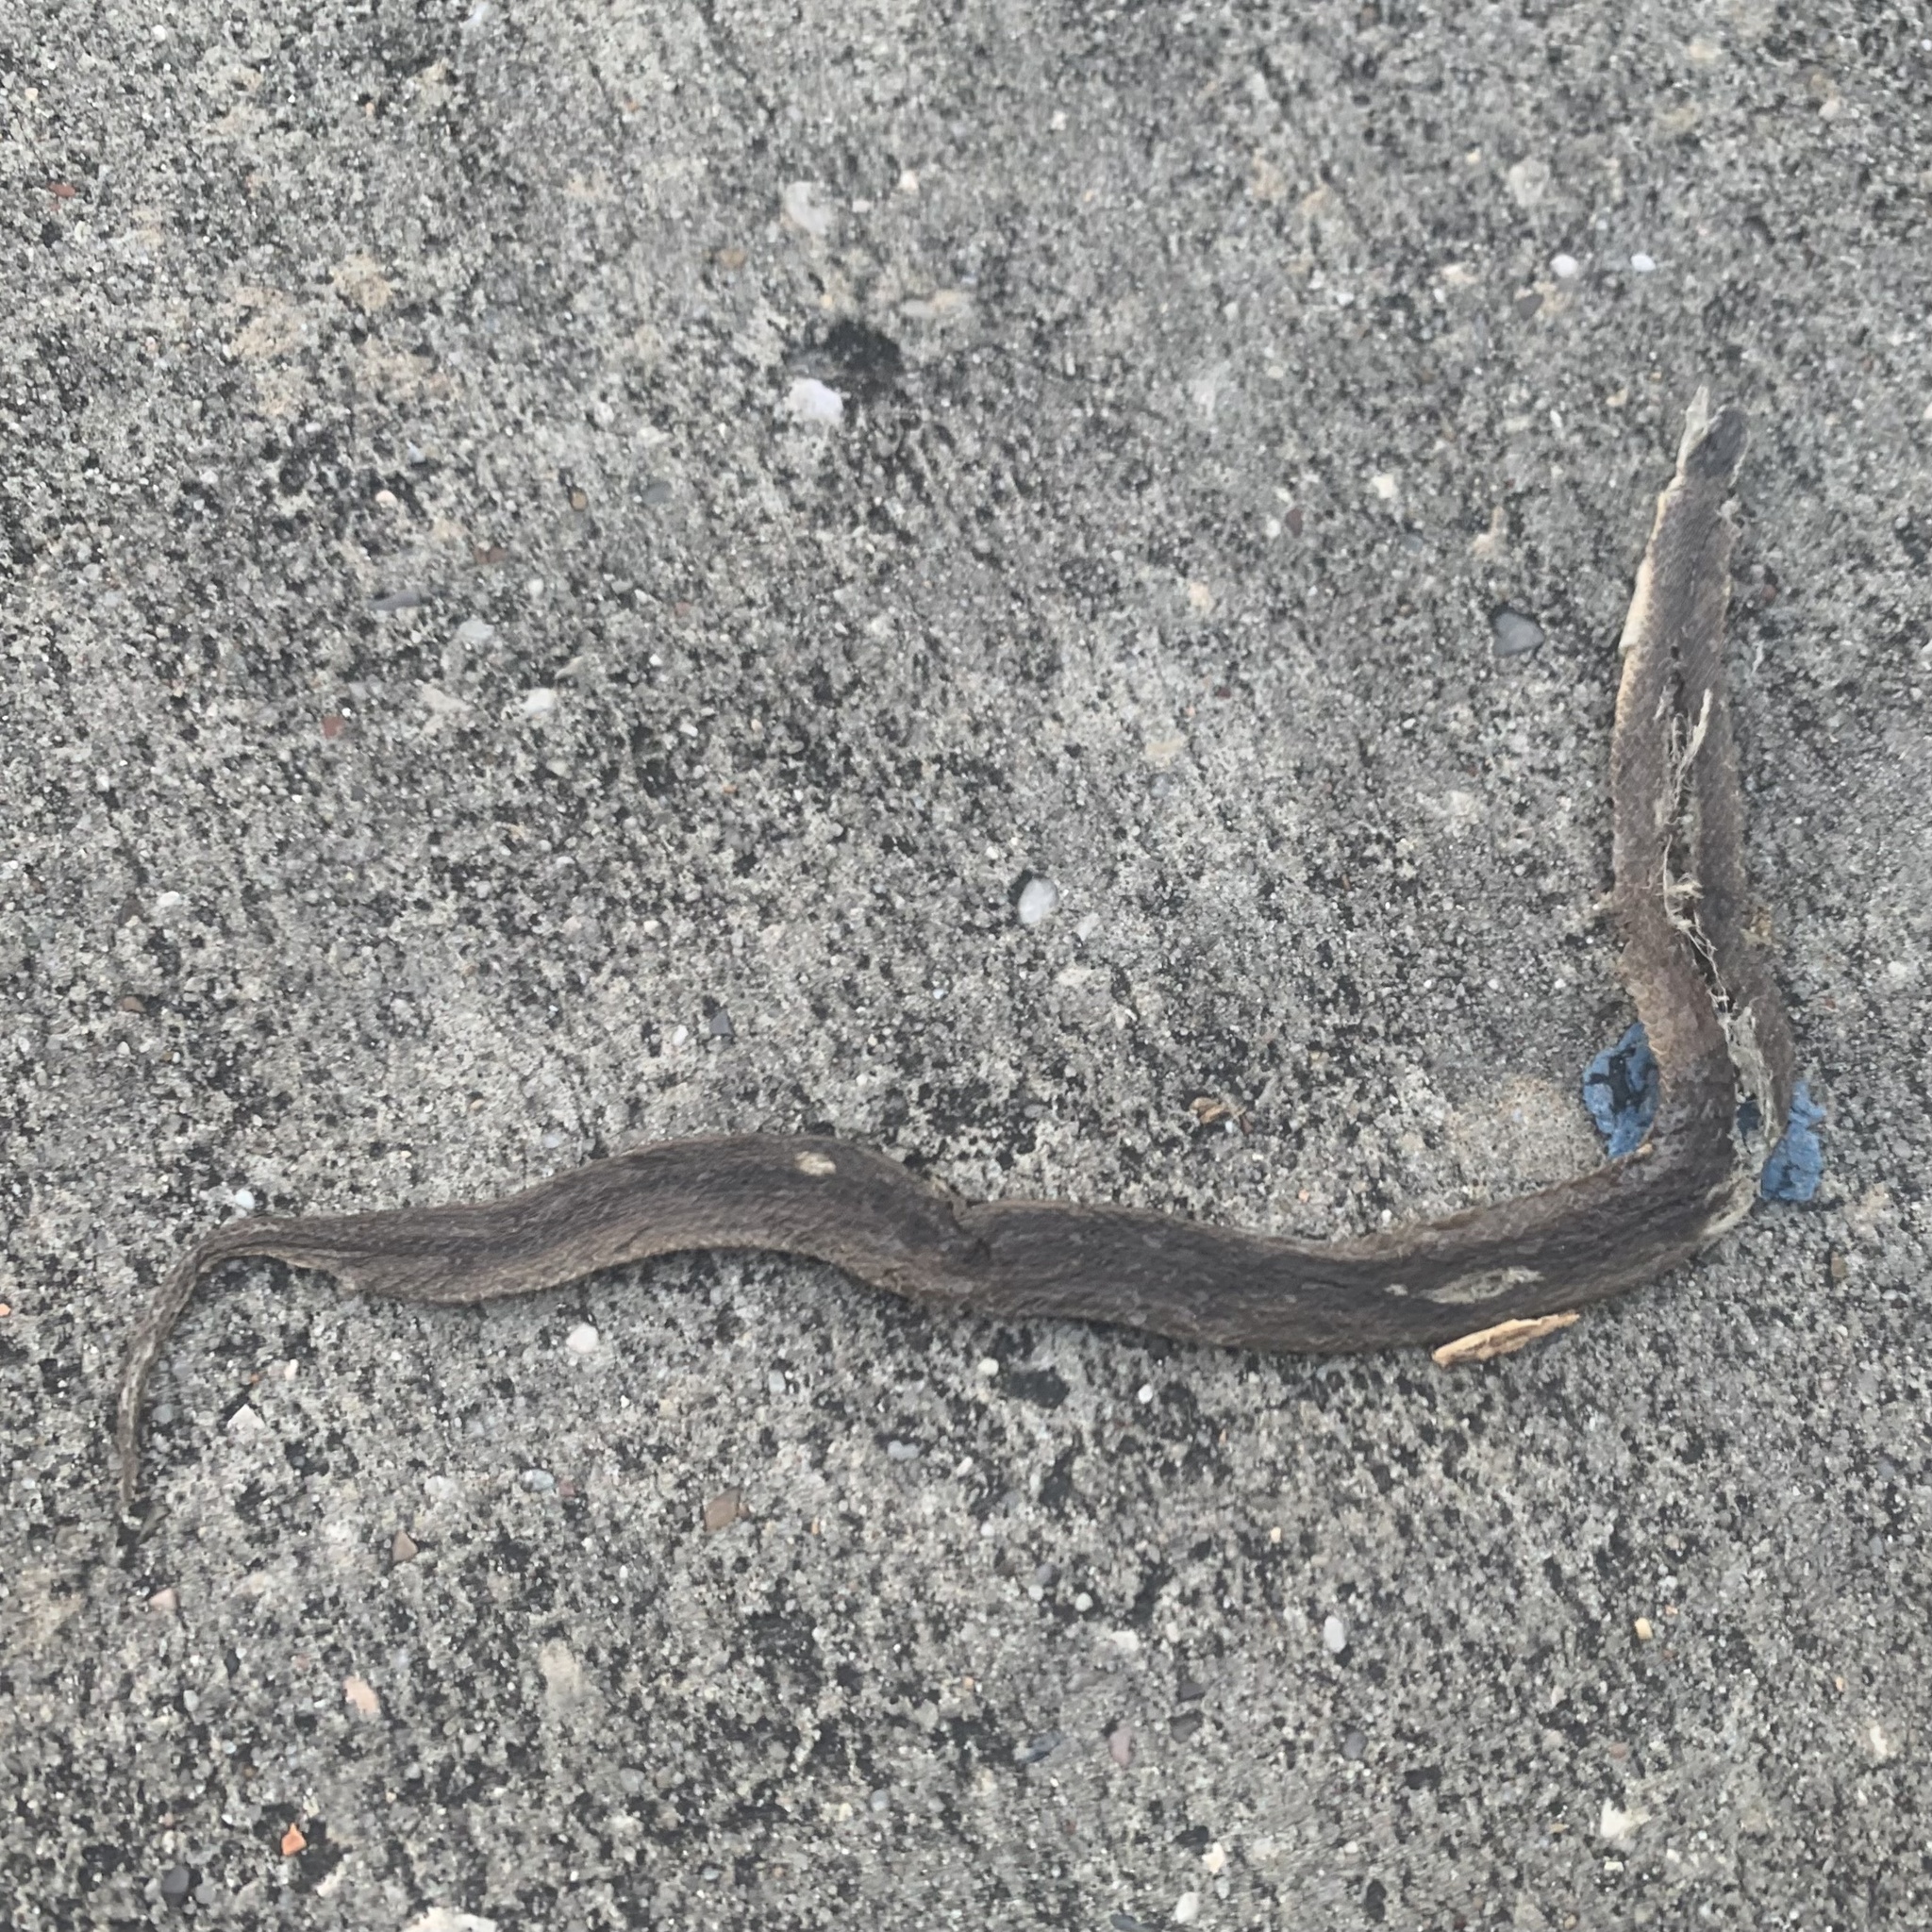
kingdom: Animalia
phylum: Chordata
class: Squamata
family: Colubridae
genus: Haldea
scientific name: Haldea striatula
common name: Rough earth snake
